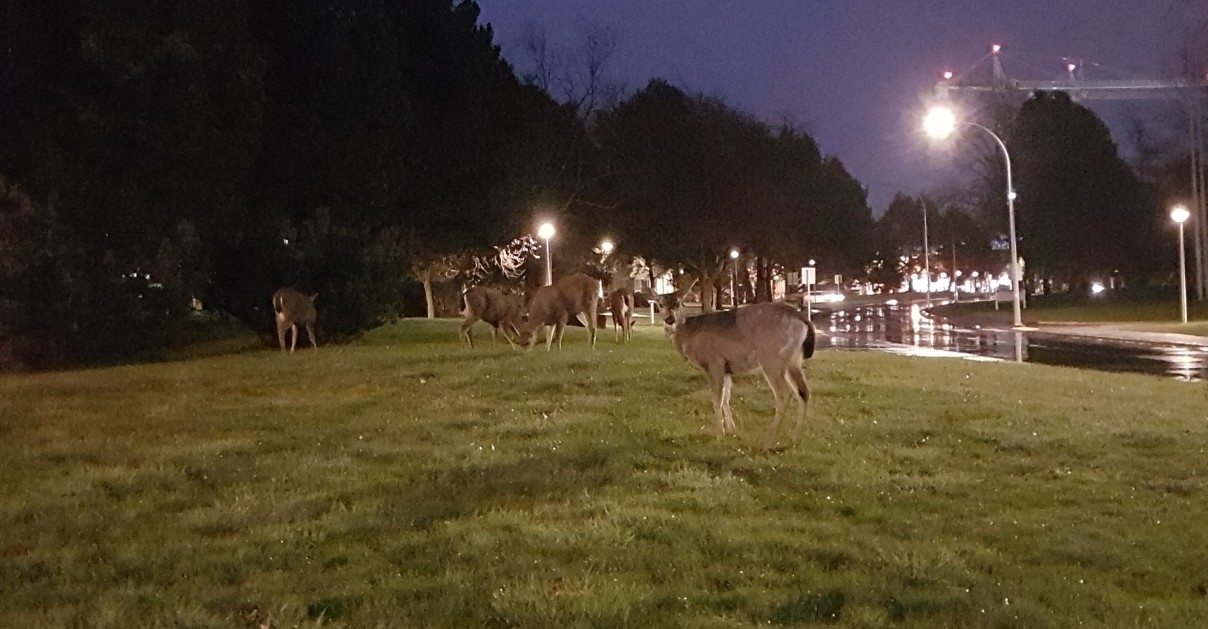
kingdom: Animalia
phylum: Chordata
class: Mammalia
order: Artiodactyla
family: Cervidae
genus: Odocoileus
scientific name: Odocoileus hemionus
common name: Mule deer
